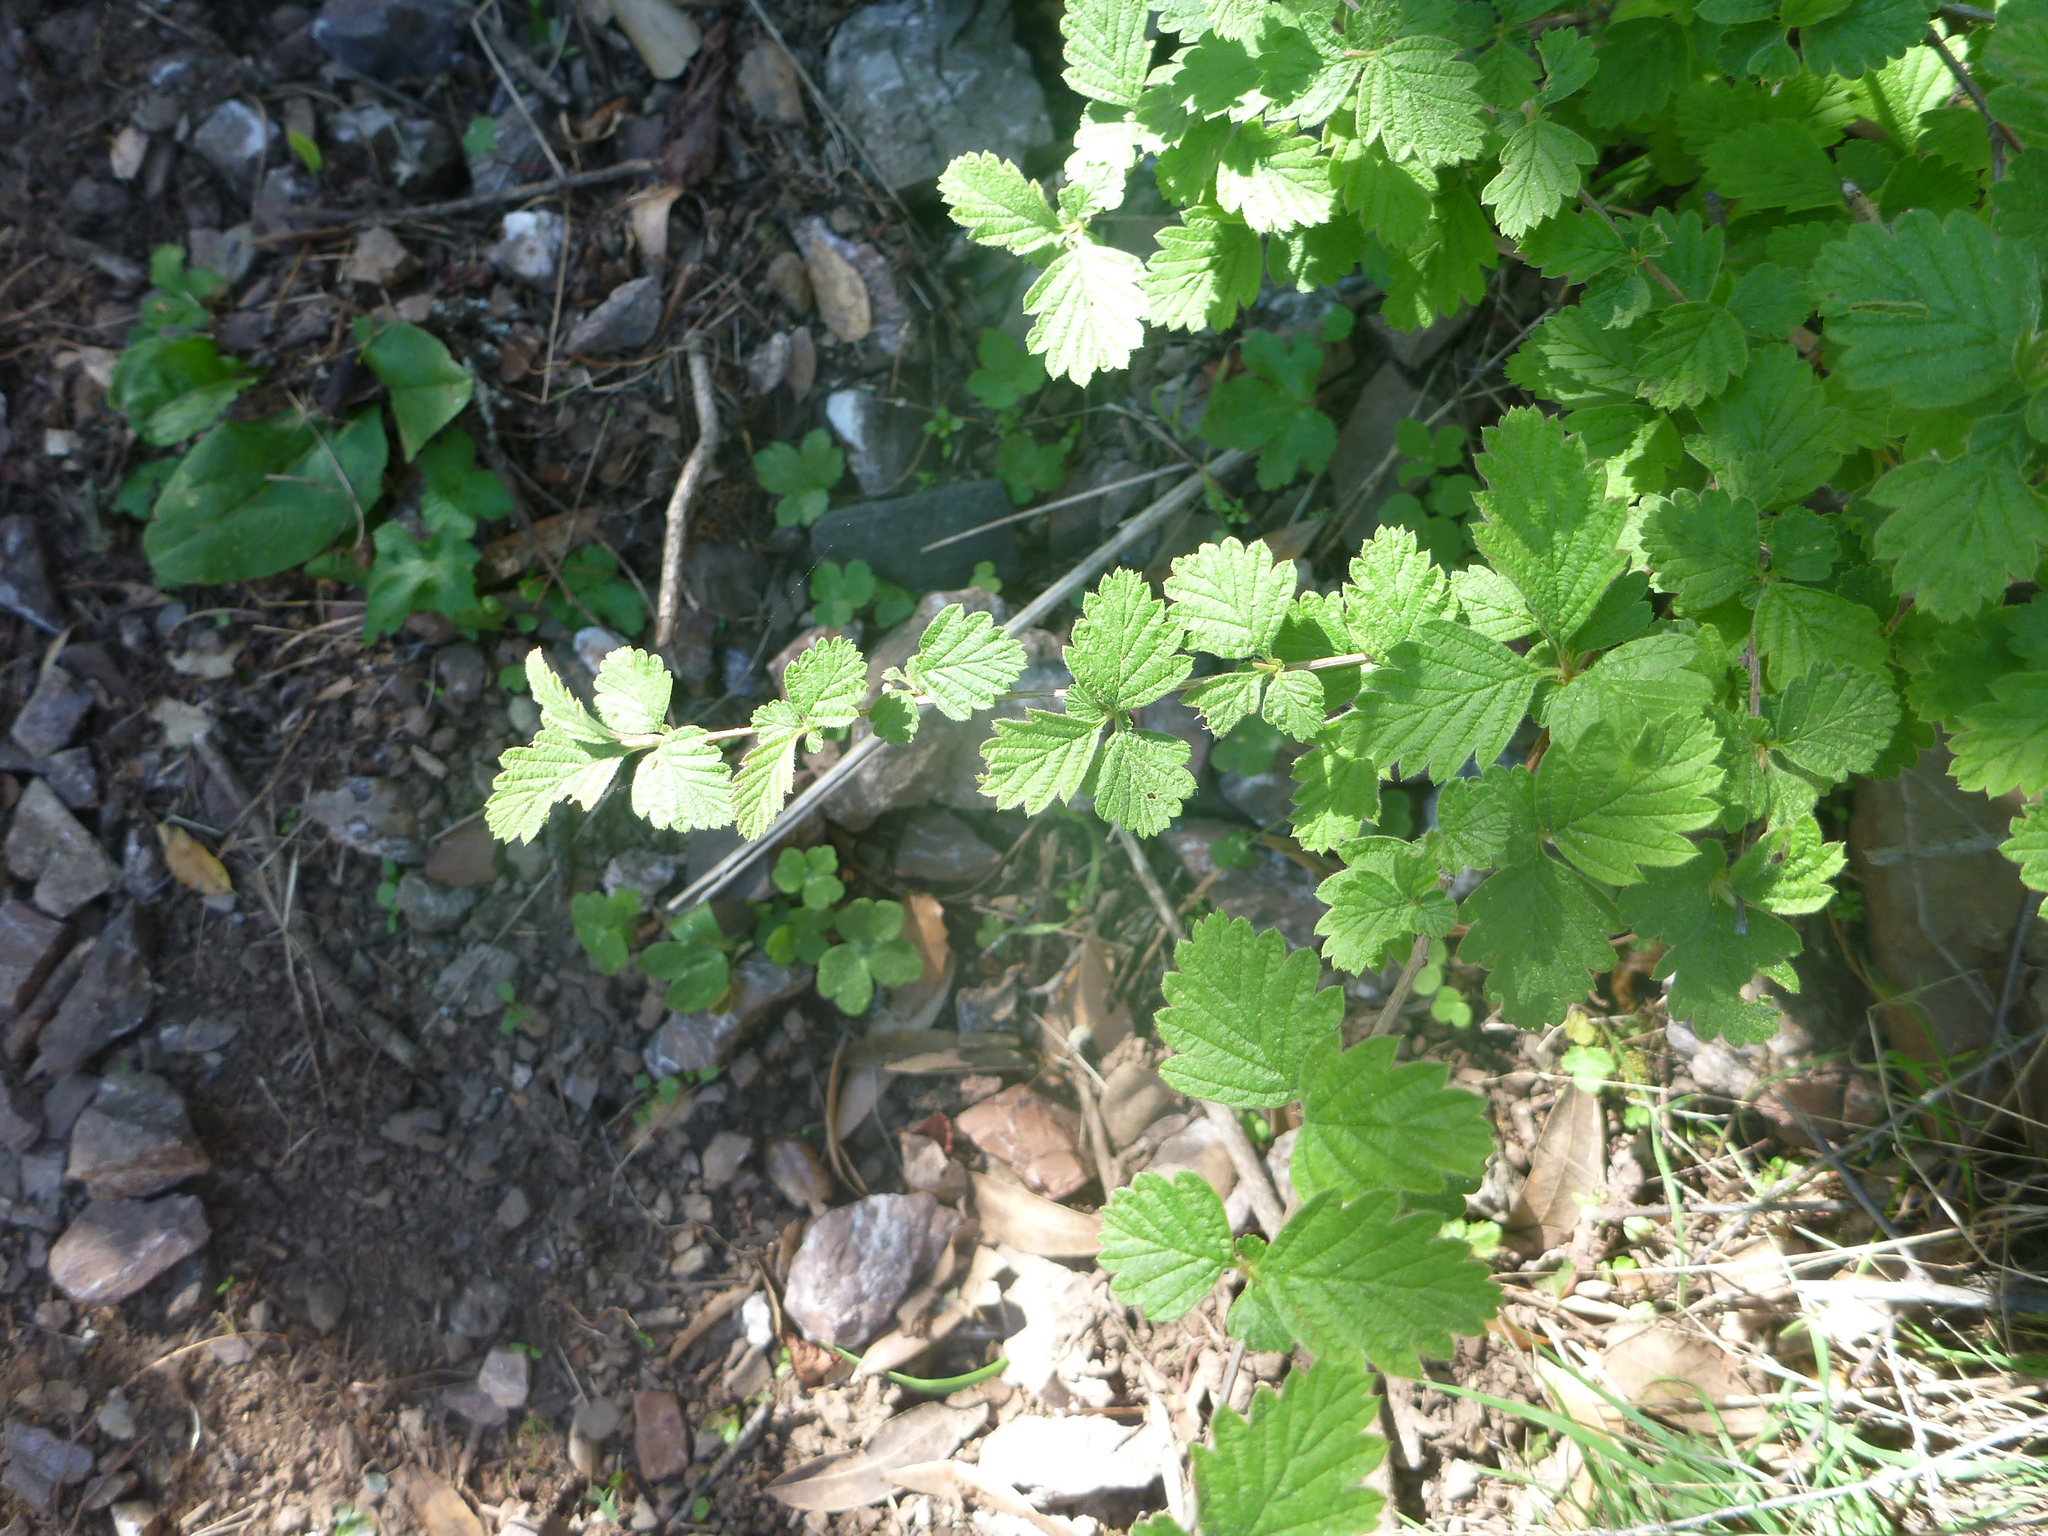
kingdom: Plantae
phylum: Tracheophyta
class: Magnoliopsida
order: Rosales
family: Rosaceae
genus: Holodiscus
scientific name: Holodiscus discolor
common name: Oceanspray
